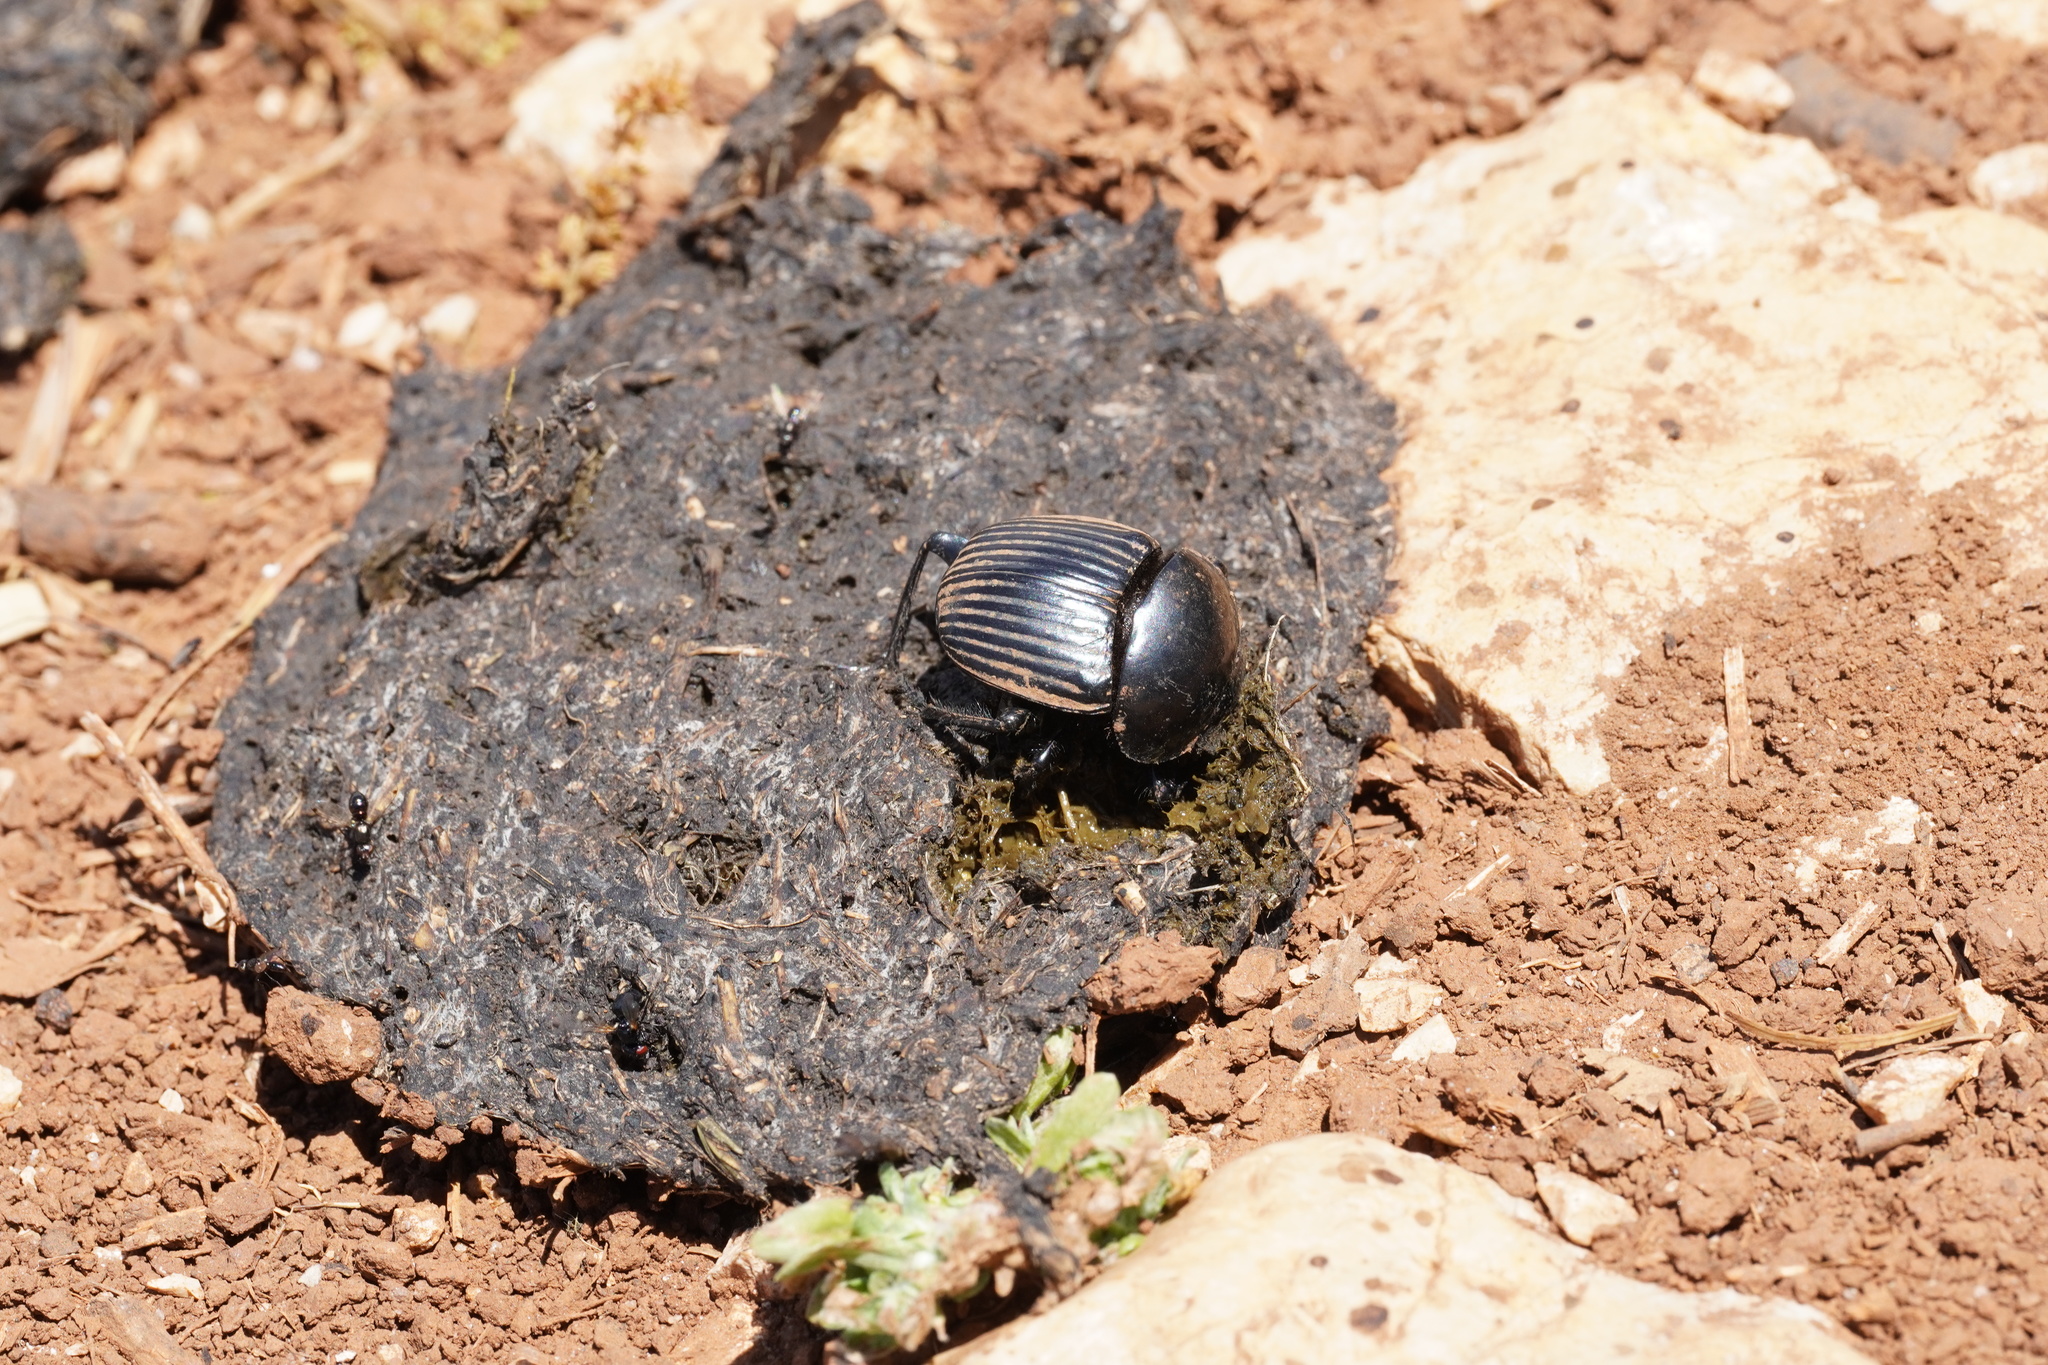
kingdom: Animalia
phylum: Arthropoda
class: Insecta
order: Coleoptera
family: Scarabaeidae
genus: Ateuchetus
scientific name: Ateuchetus laticollis
